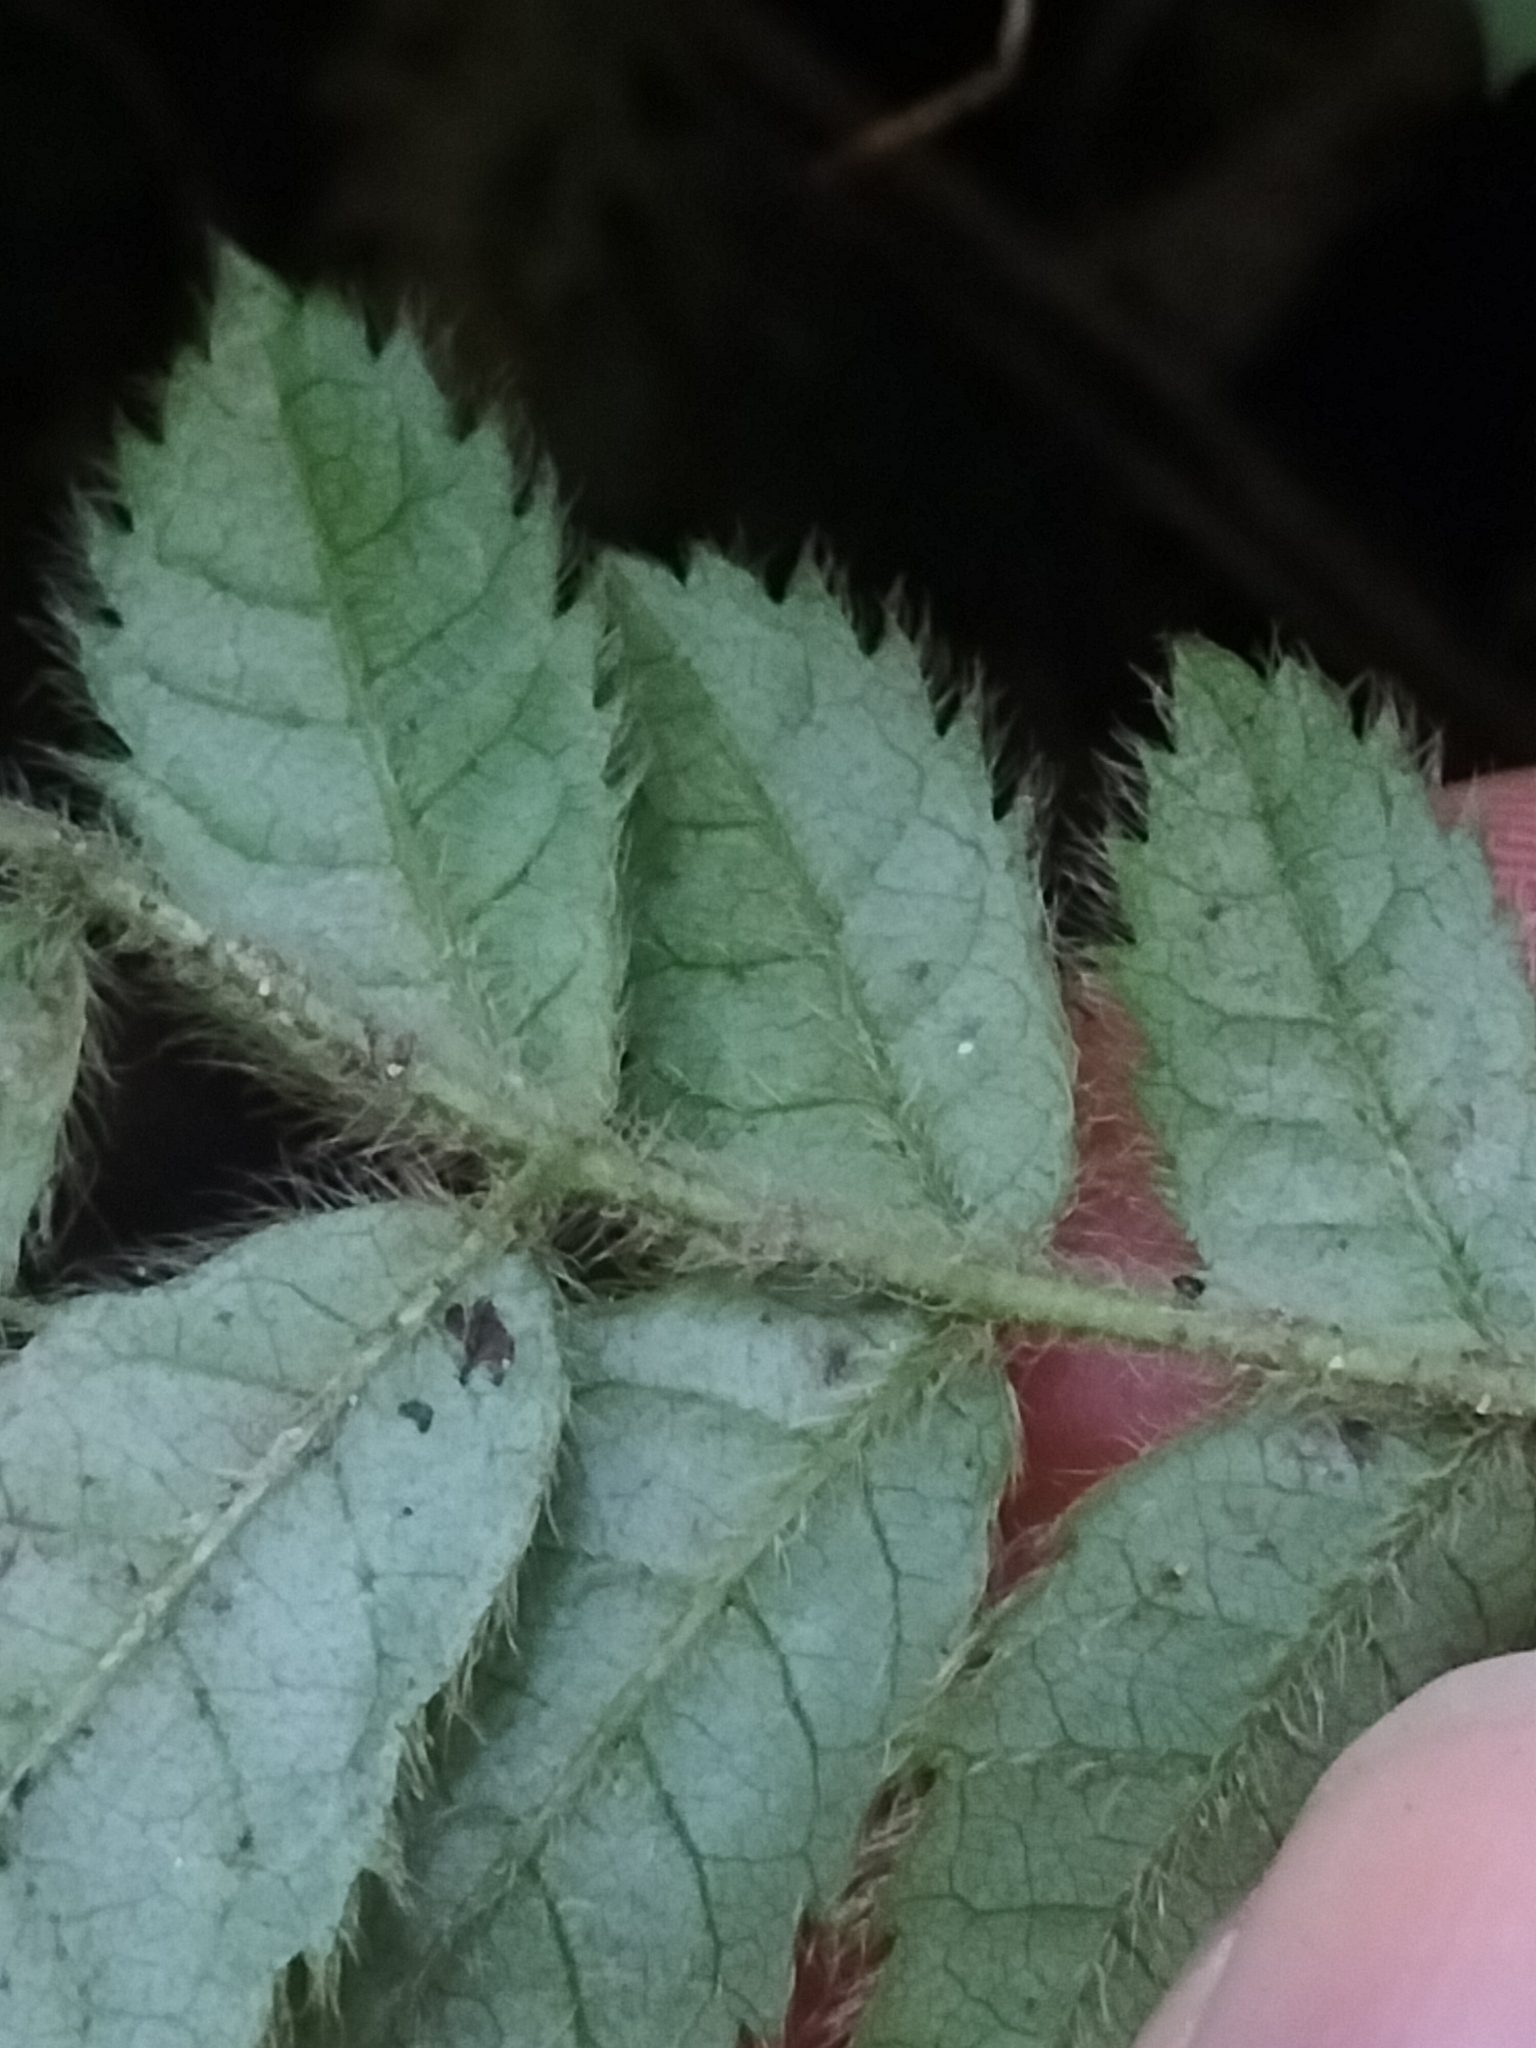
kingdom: Plantae
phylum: Tracheophyta
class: Magnoliopsida
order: Oxalidales
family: Cunoniaceae
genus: Ackama
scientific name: Ackama rosifolia
